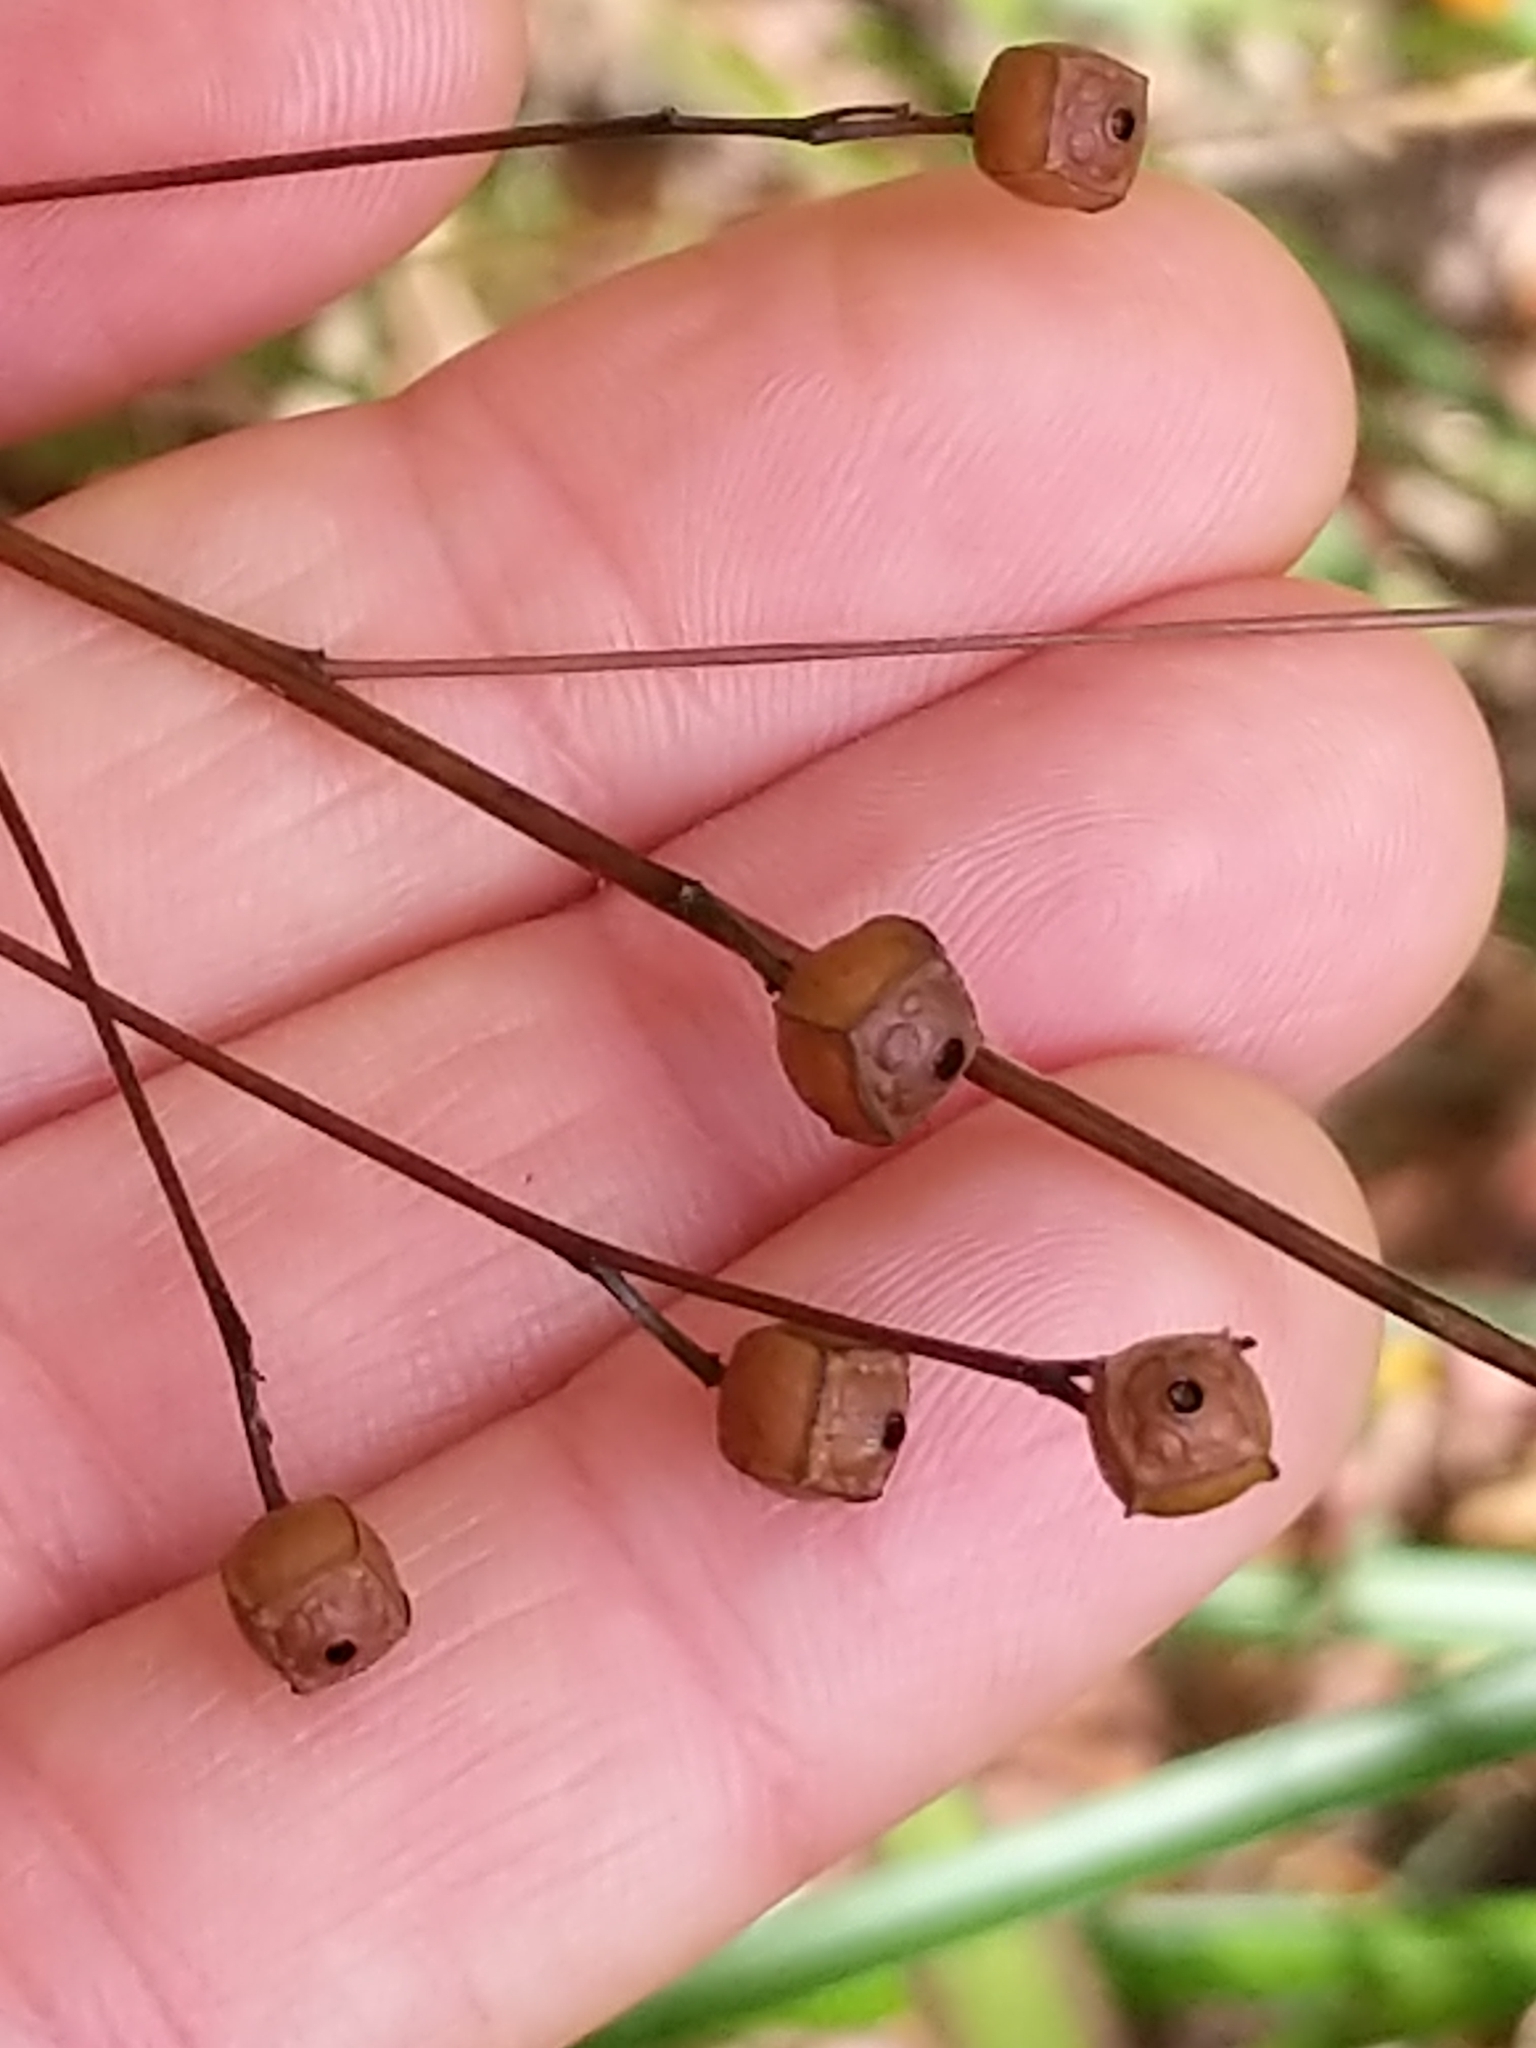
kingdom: Plantae
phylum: Tracheophyta
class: Magnoliopsida
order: Myrtales
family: Onagraceae
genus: Ludwigia
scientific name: Ludwigia alternifolia
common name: Rattlebox
